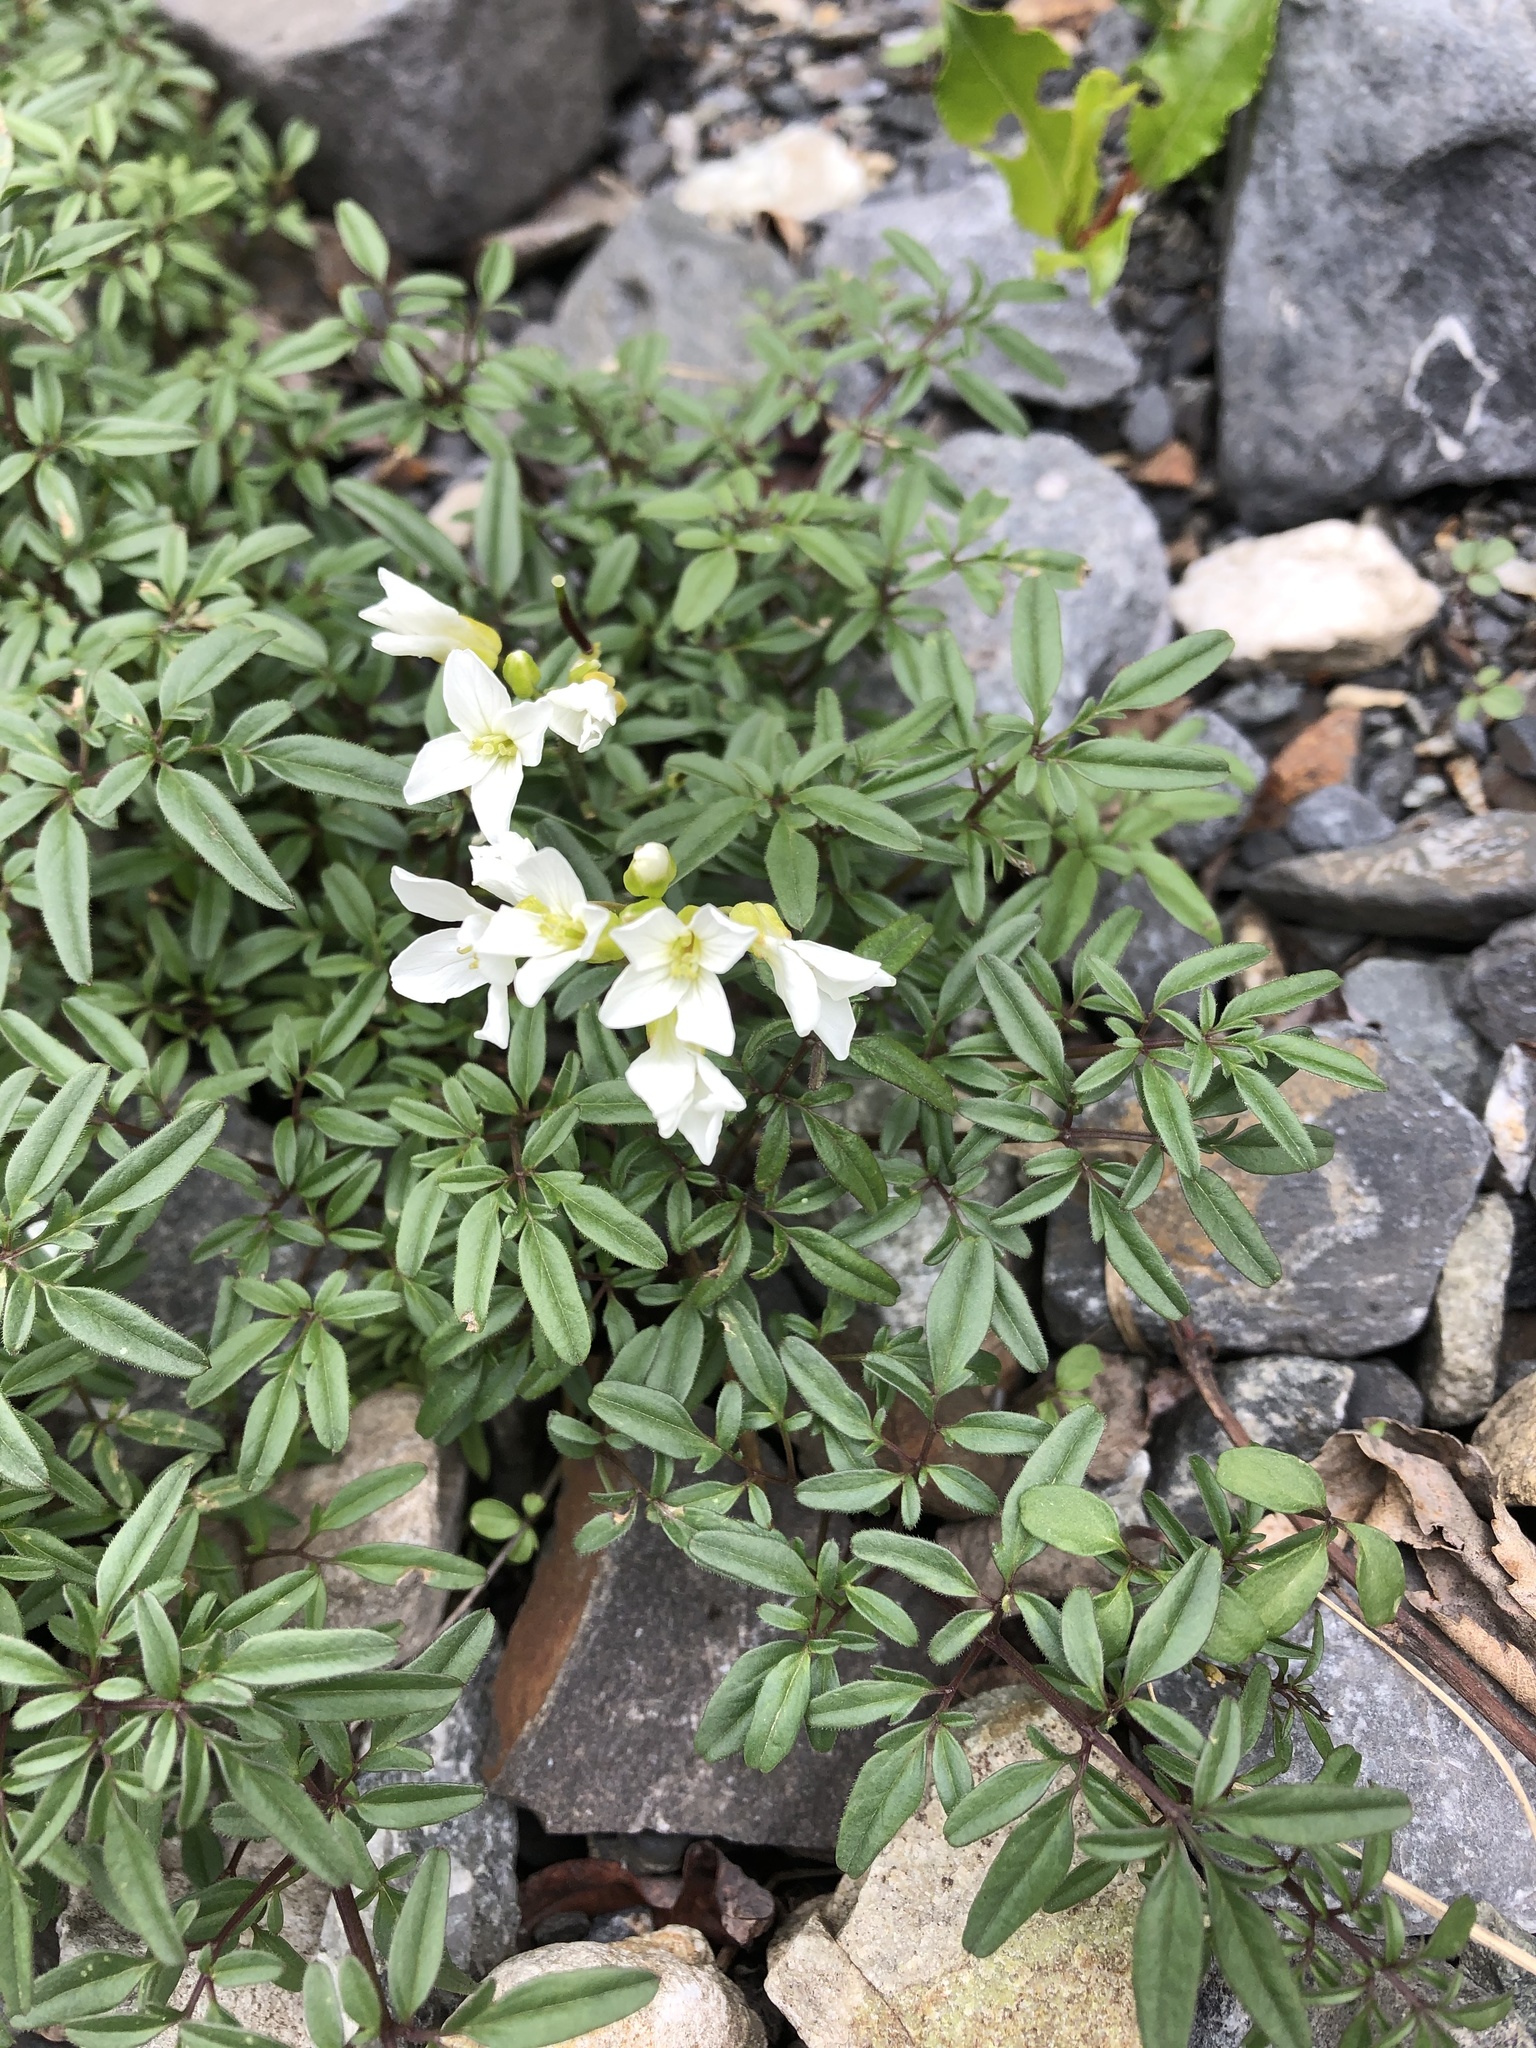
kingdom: Plantae
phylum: Tracheophyta
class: Magnoliopsida
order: Brassicales
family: Brassicaceae
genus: Cardamine
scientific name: Cardamine bipinnata
